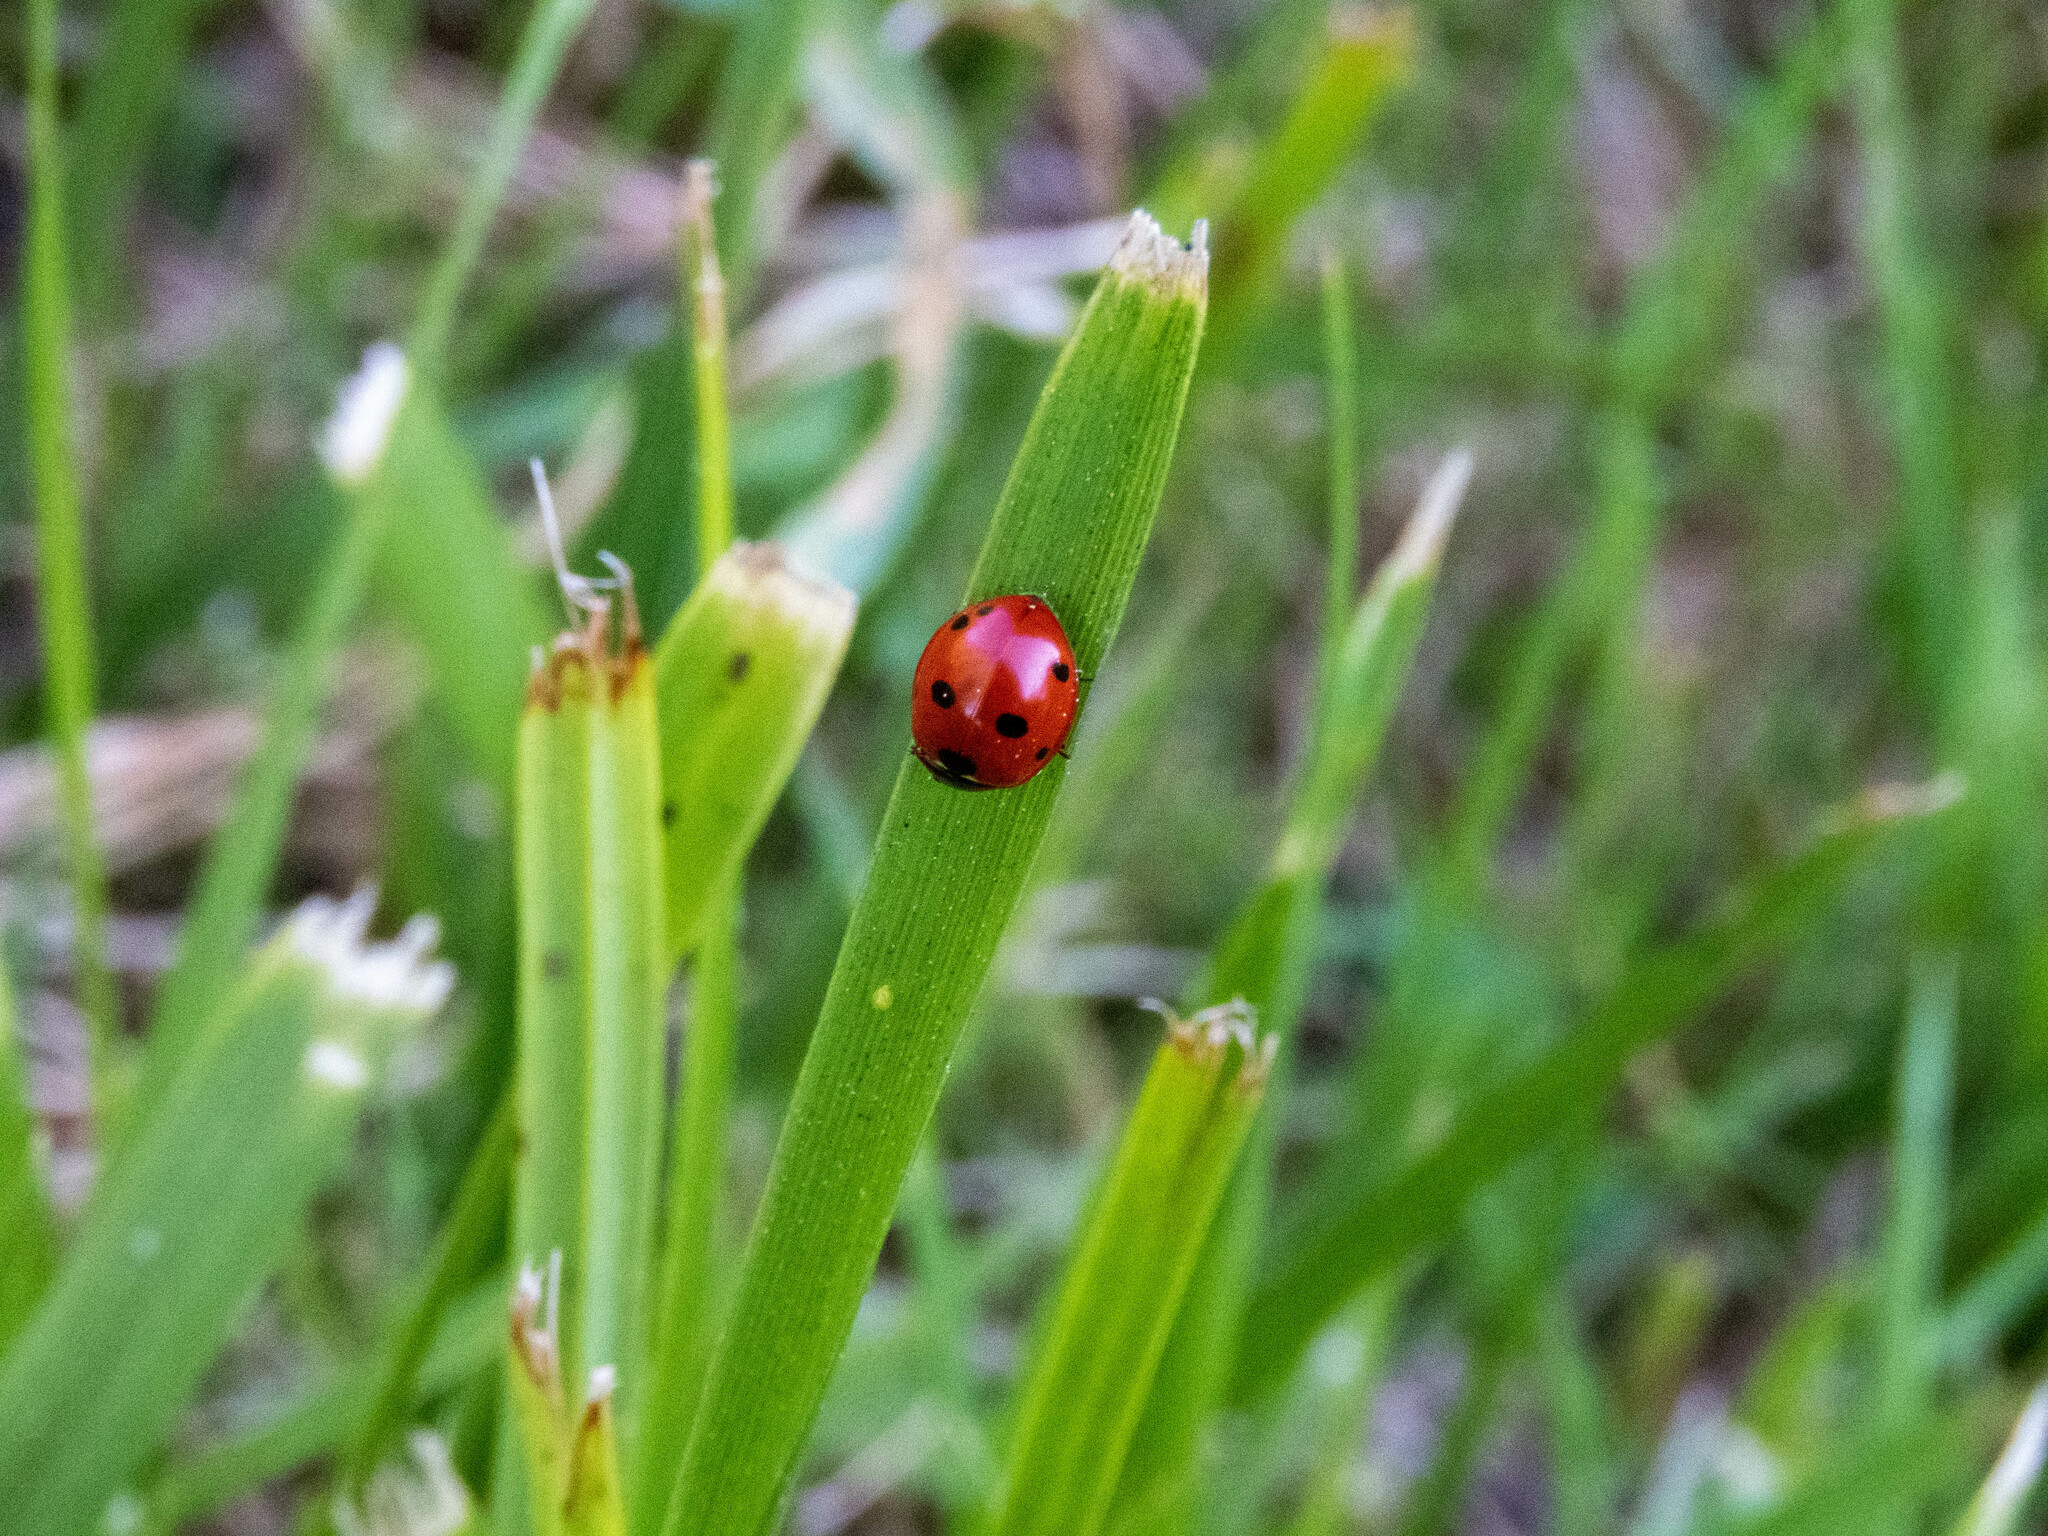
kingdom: Animalia
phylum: Arthropoda
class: Insecta
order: Coleoptera
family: Coccinellidae
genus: Coccinella
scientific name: Coccinella septempunctata
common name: Sevenspotted lady beetle
